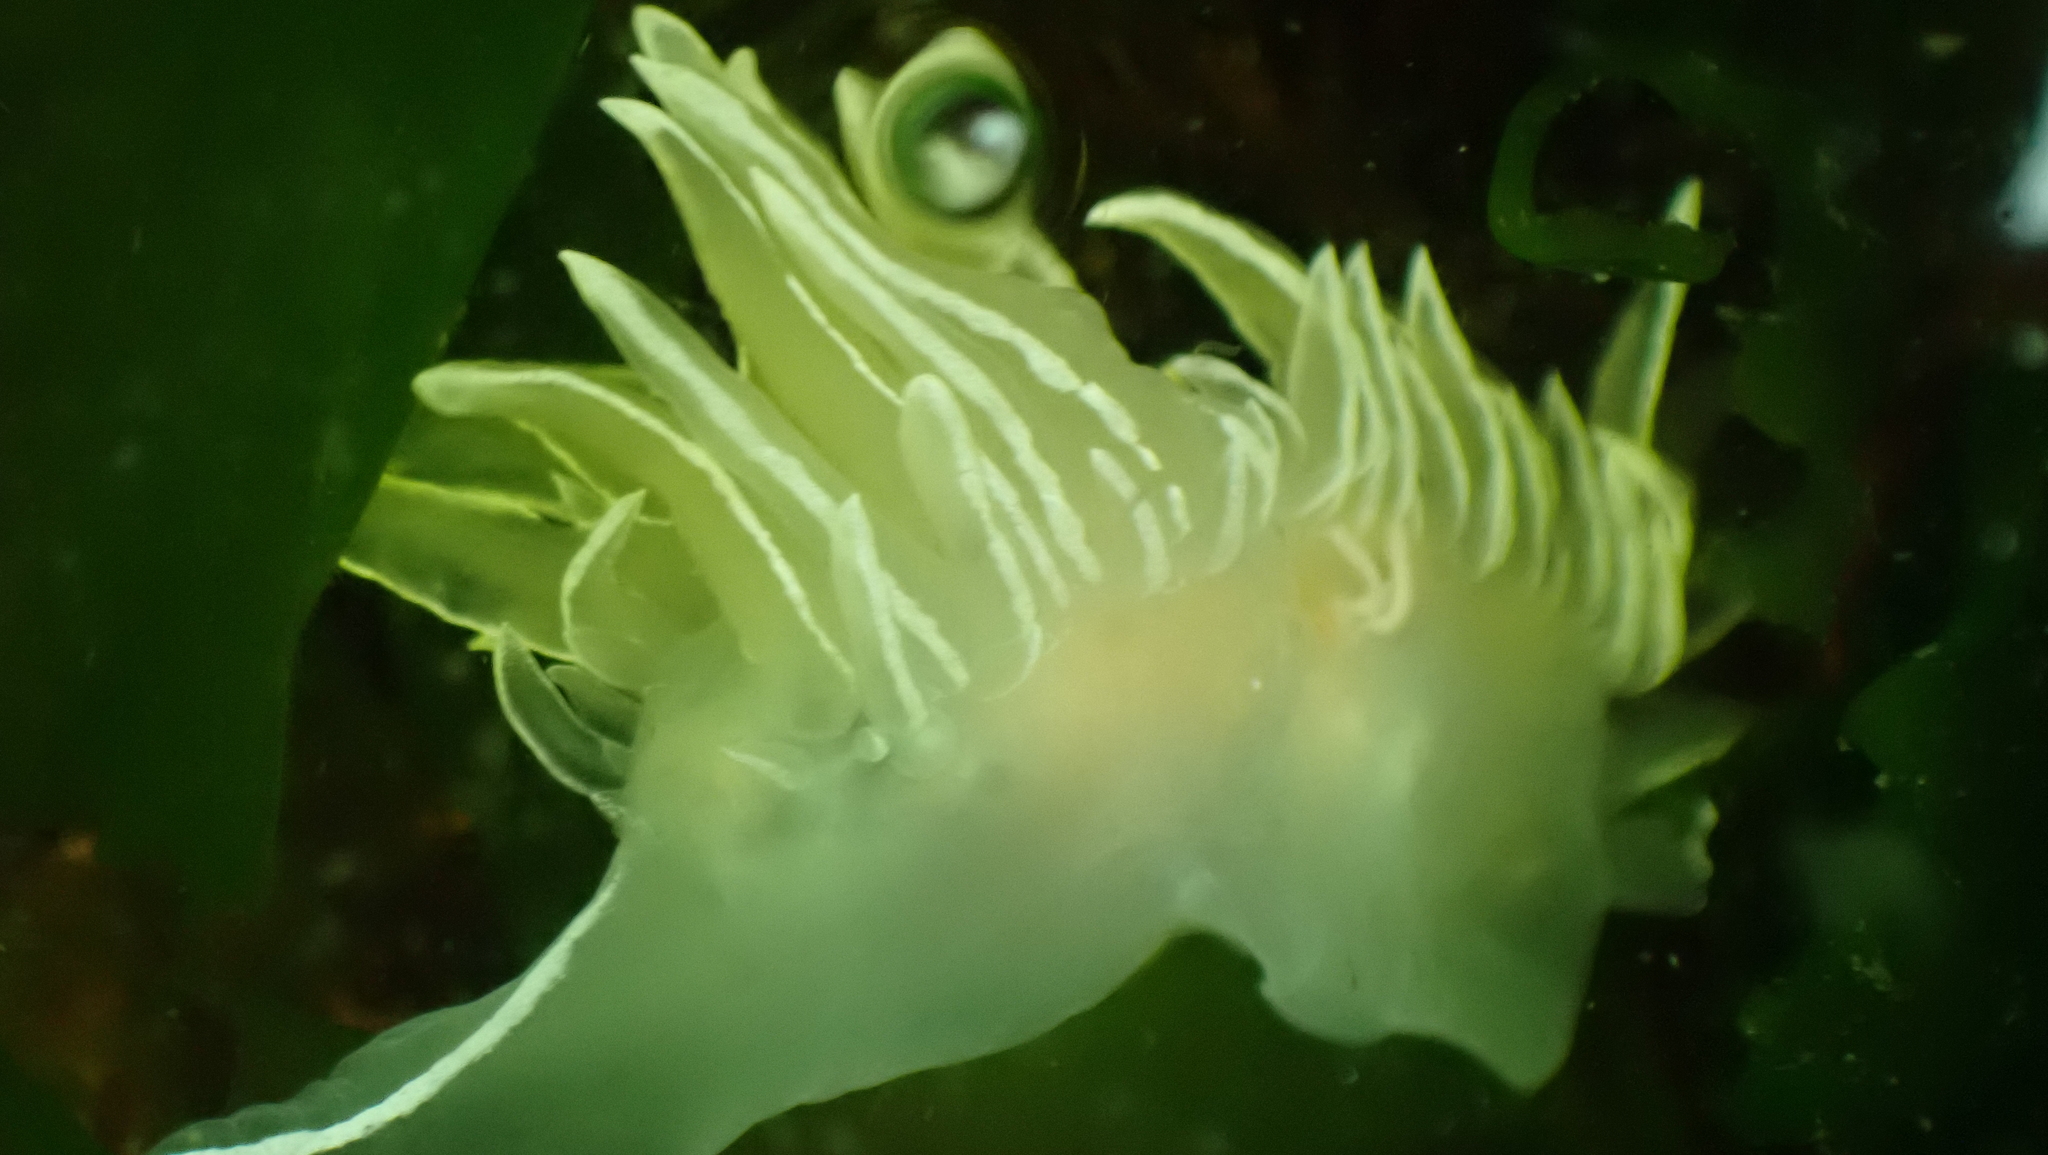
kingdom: Animalia
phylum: Mollusca
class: Gastropoda
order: Nudibranchia
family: Dironidae
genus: Dirona
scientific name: Dirona albolineata
